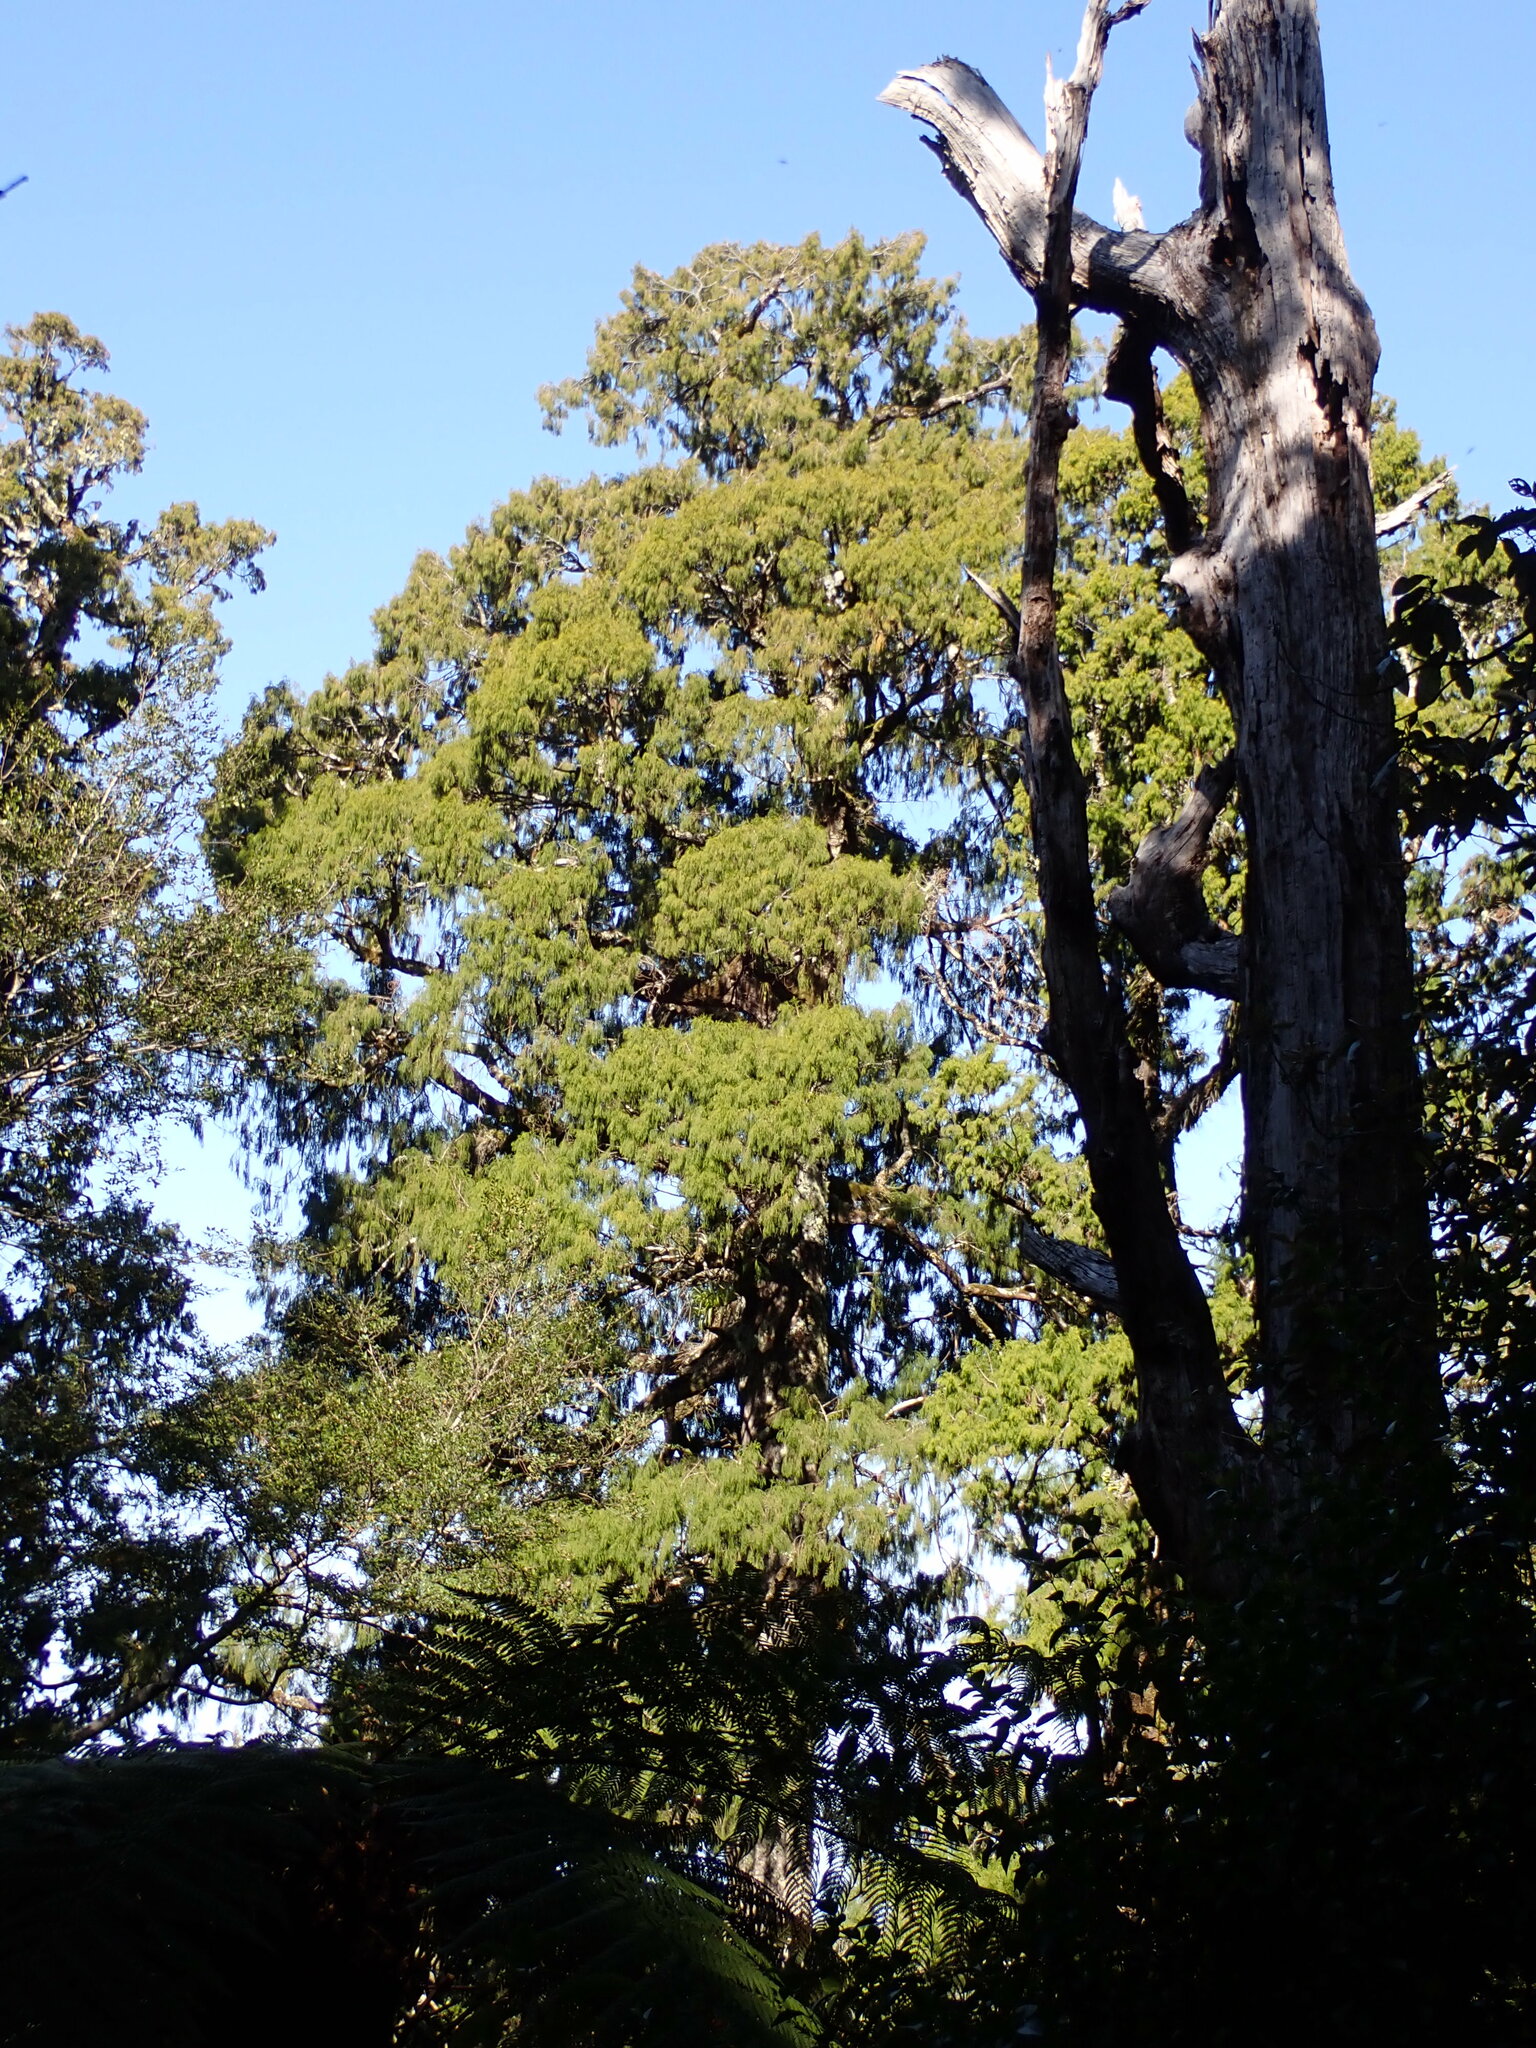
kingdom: Plantae
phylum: Tracheophyta
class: Pinopsida
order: Pinales
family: Podocarpaceae
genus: Dacrydium
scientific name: Dacrydium cupressinum
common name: Red pine
